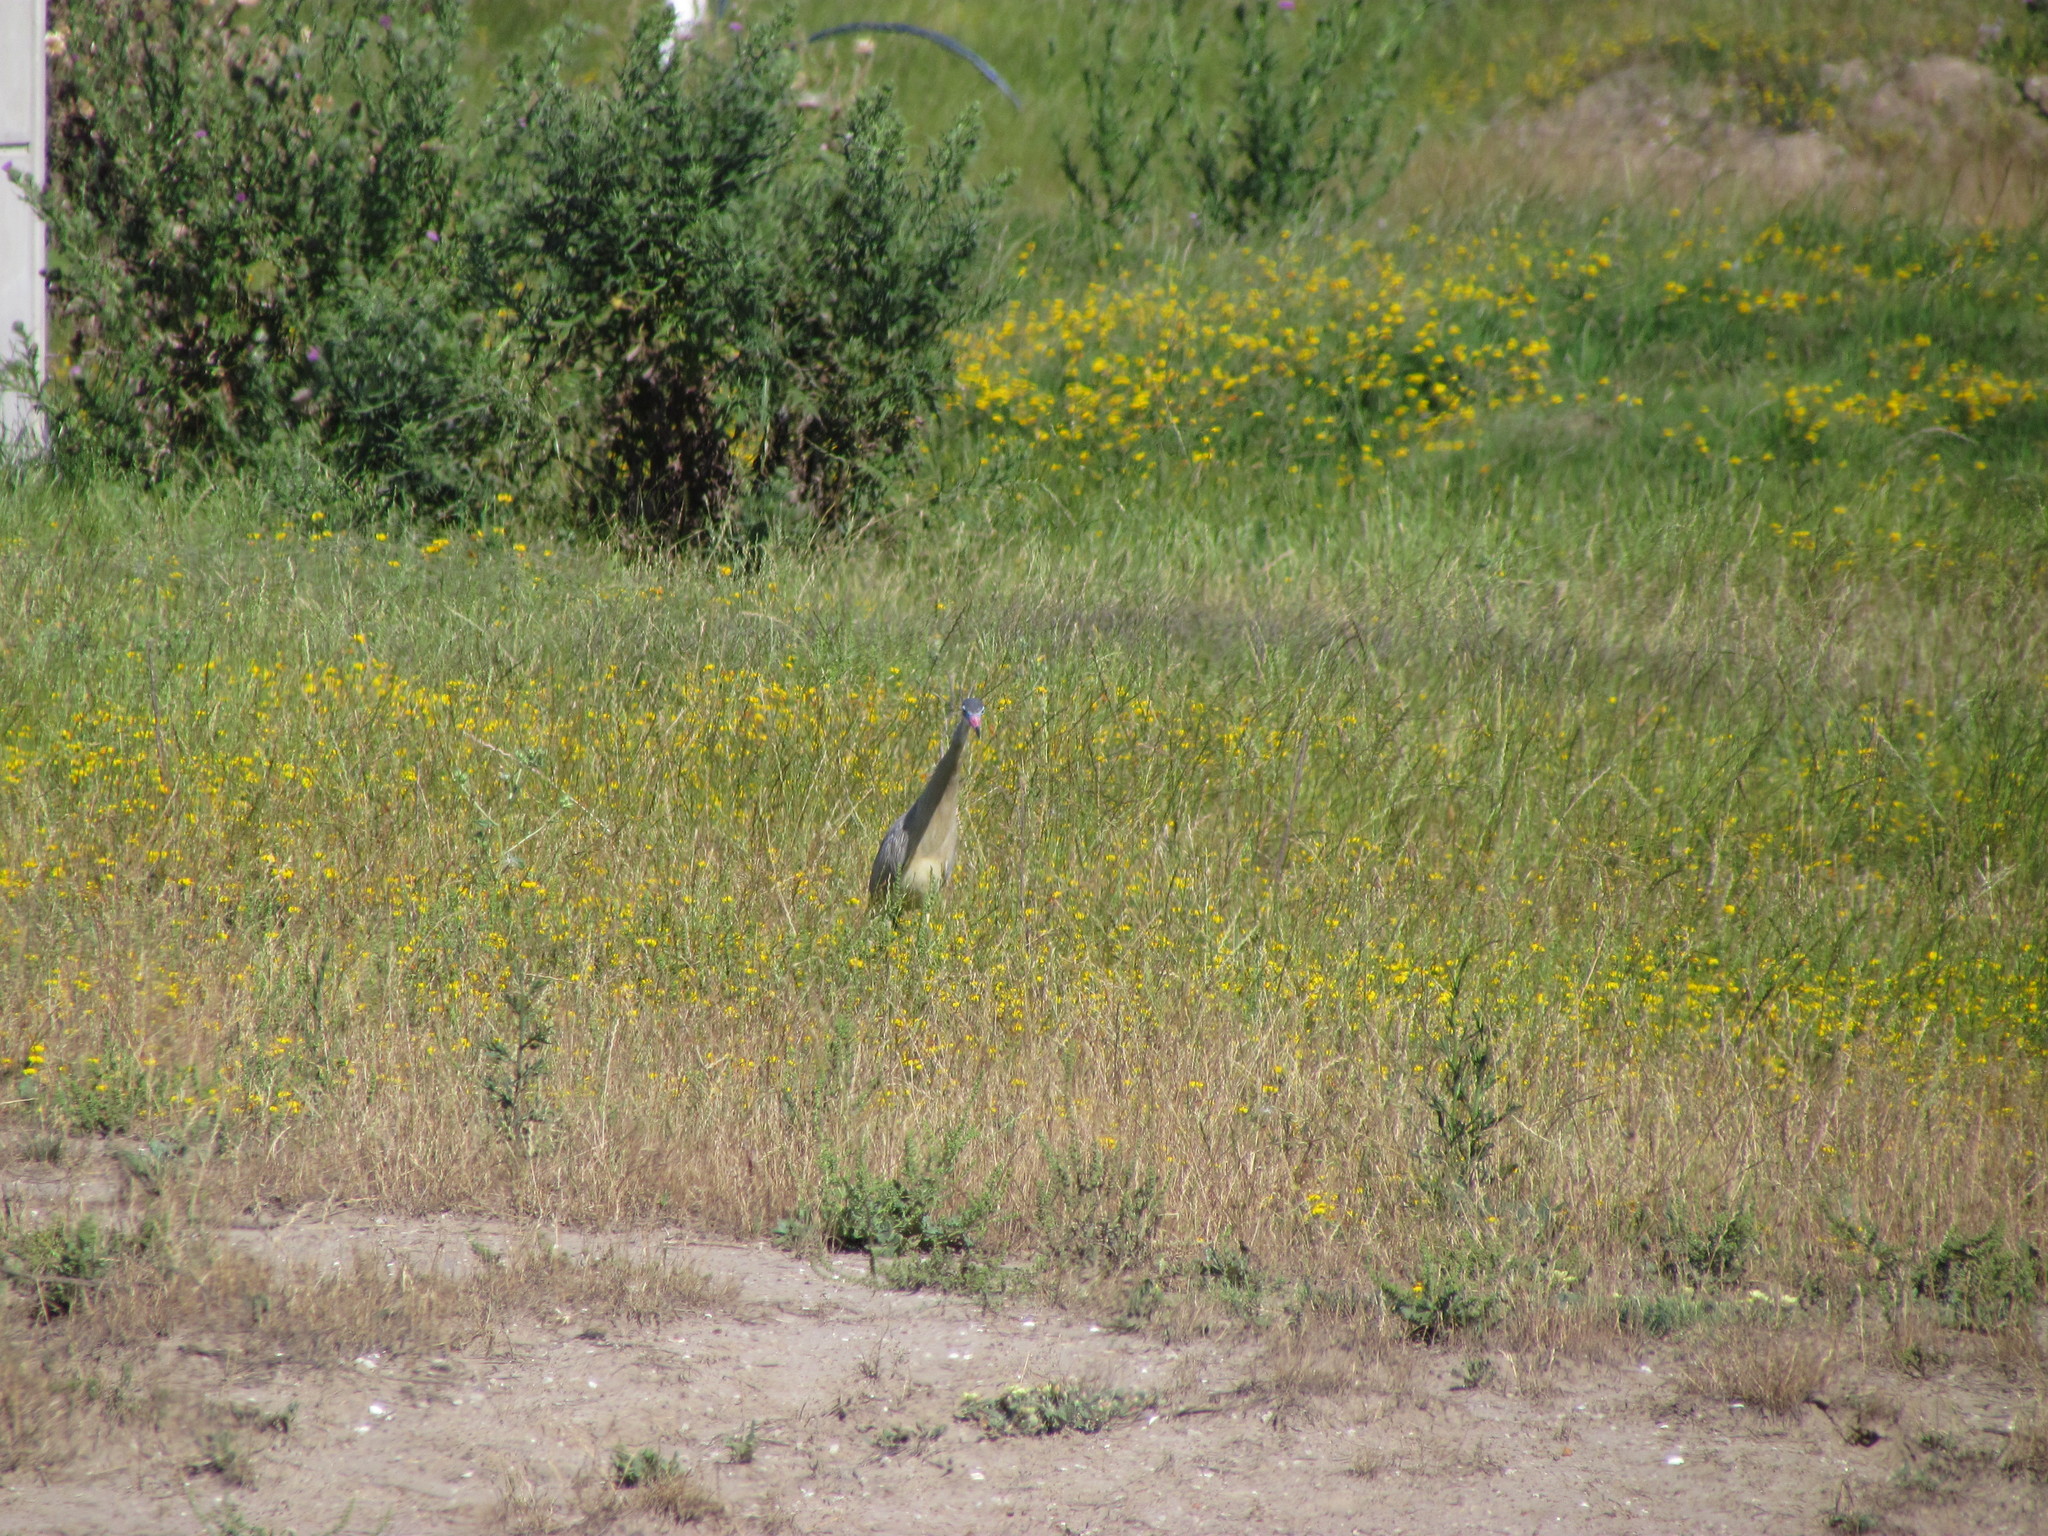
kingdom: Animalia
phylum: Chordata
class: Aves
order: Pelecaniformes
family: Ardeidae
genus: Syrigma
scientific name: Syrigma sibilatrix
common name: Whistling heron
